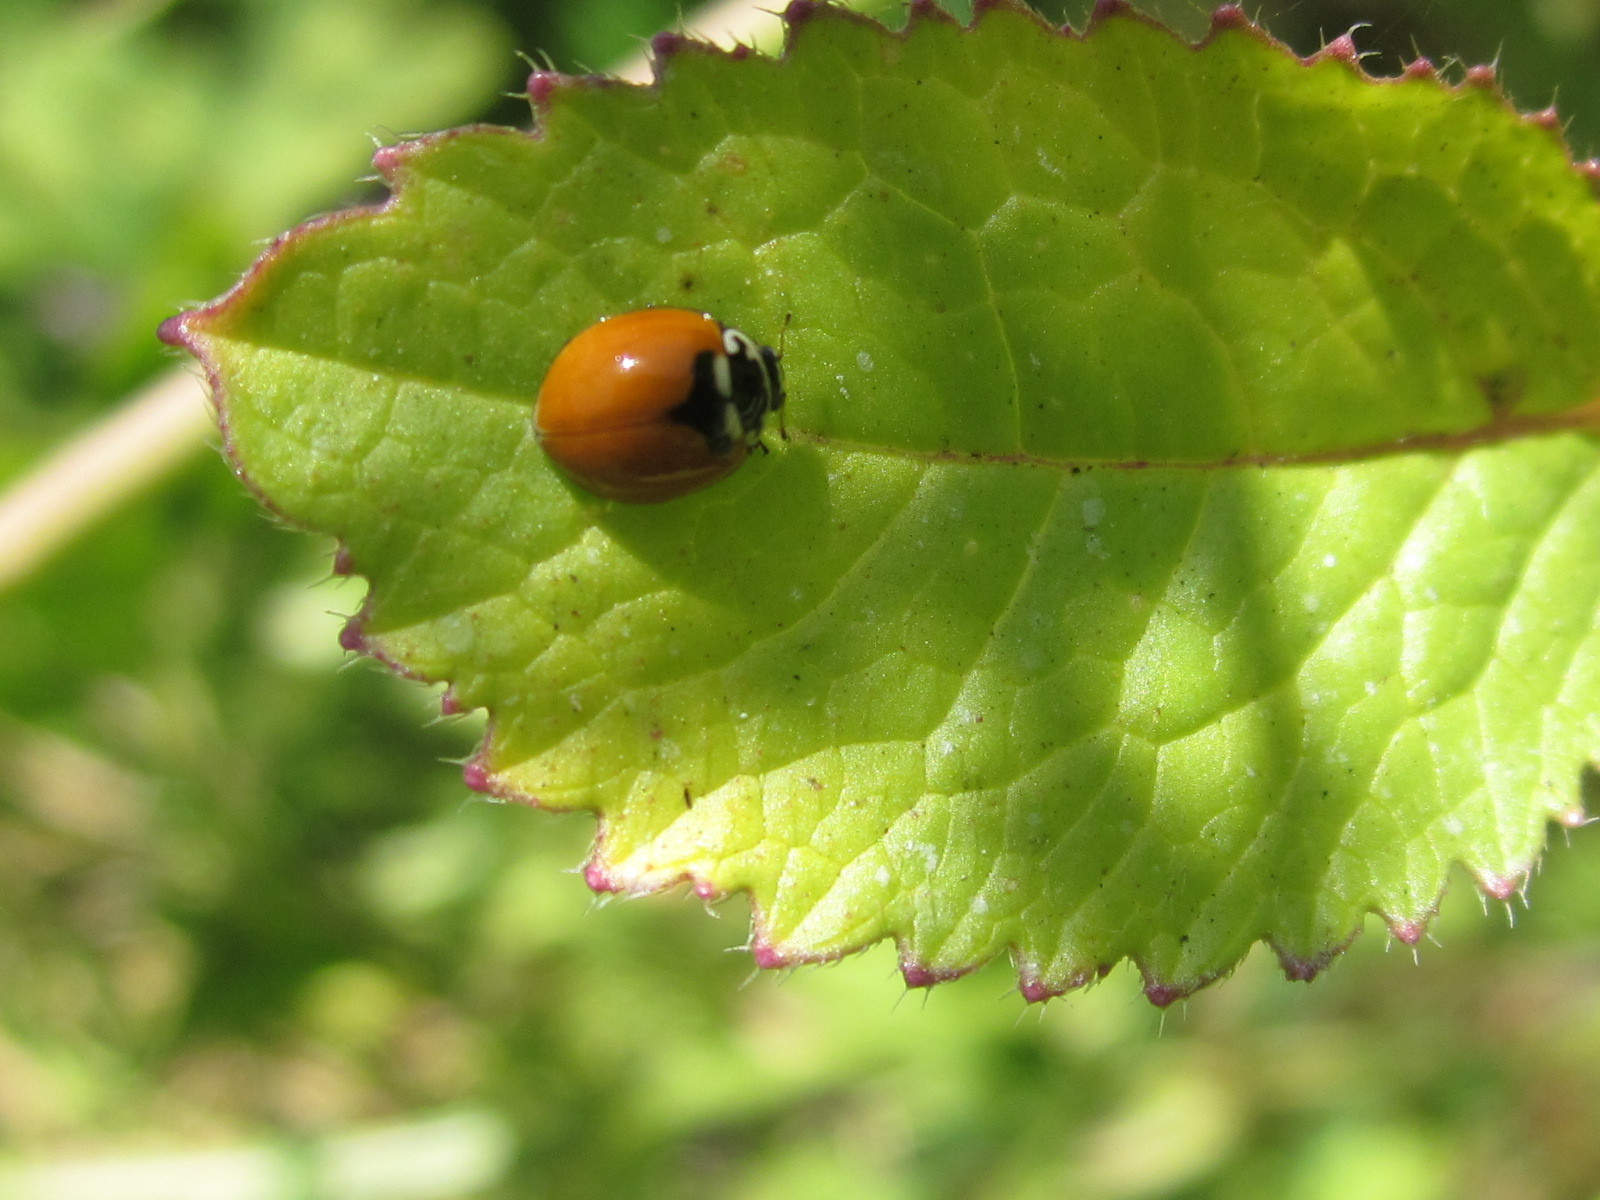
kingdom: Animalia
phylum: Arthropoda
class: Insecta
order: Coleoptera
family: Coccinellidae
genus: Adalia
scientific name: Adalia deficiens
